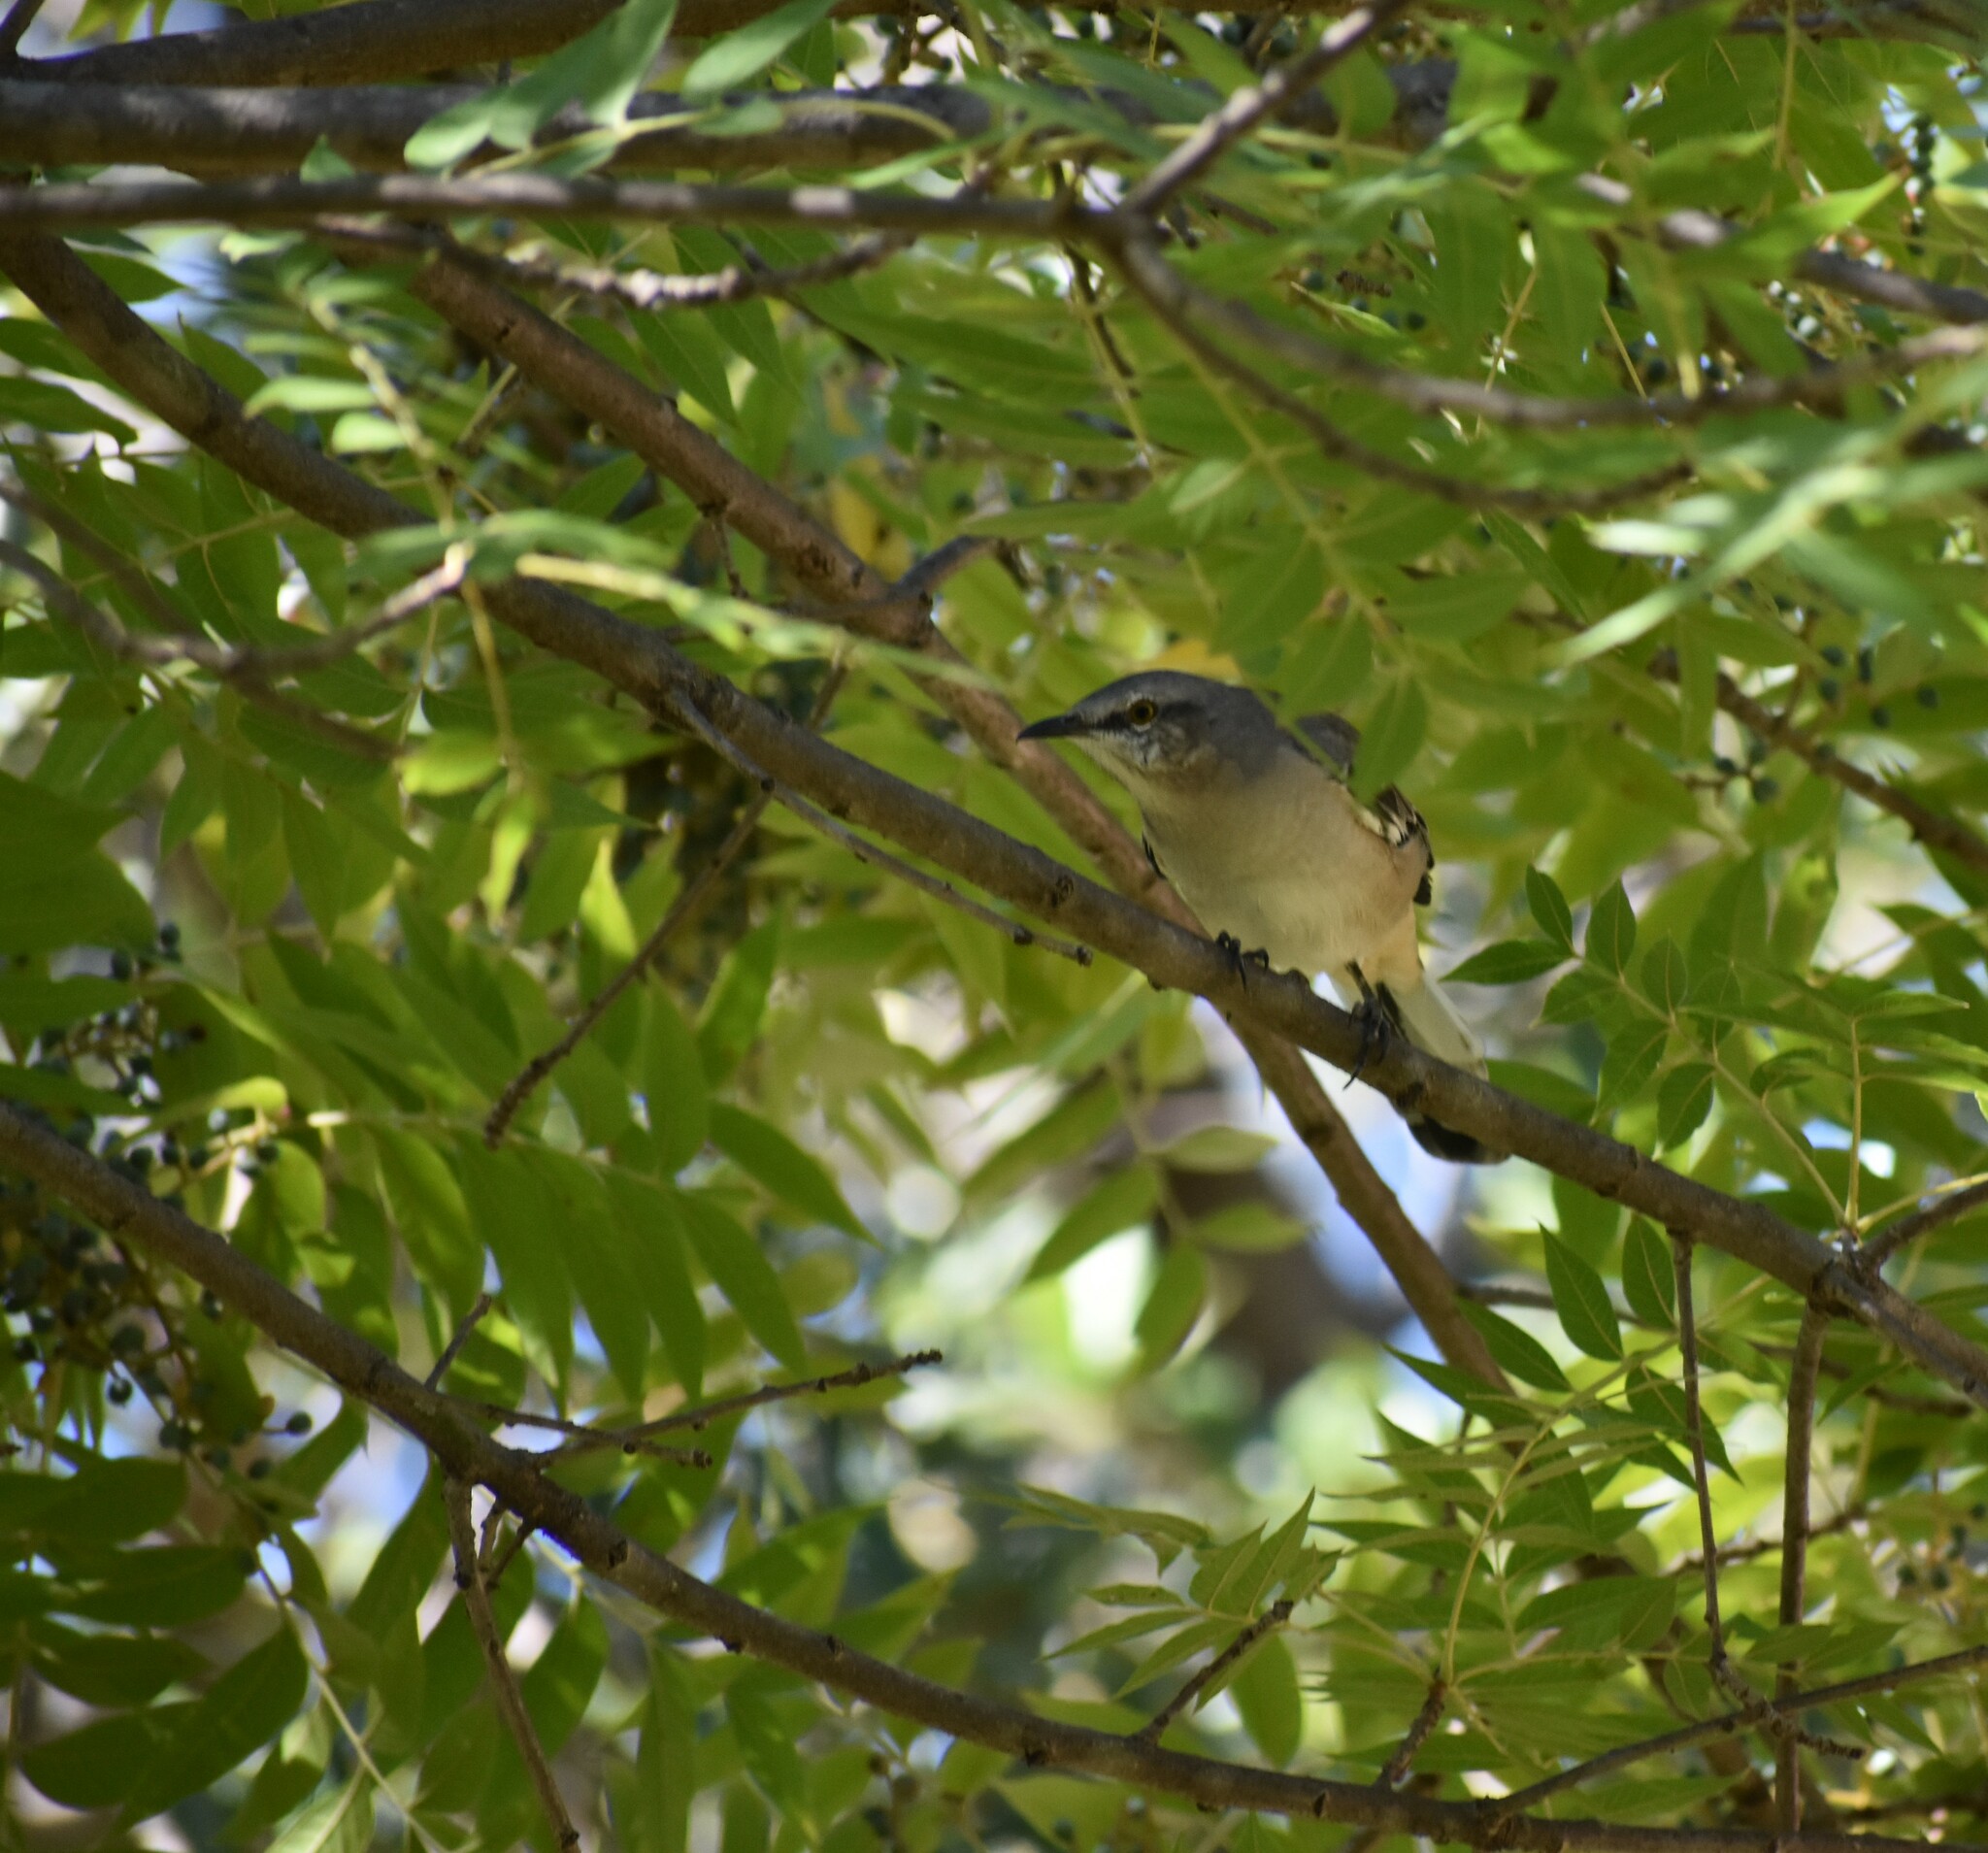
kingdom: Animalia
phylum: Chordata
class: Aves
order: Passeriformes
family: Mimidae
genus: Mimus
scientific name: Mimus polyglottos
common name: Northern mockingbird
